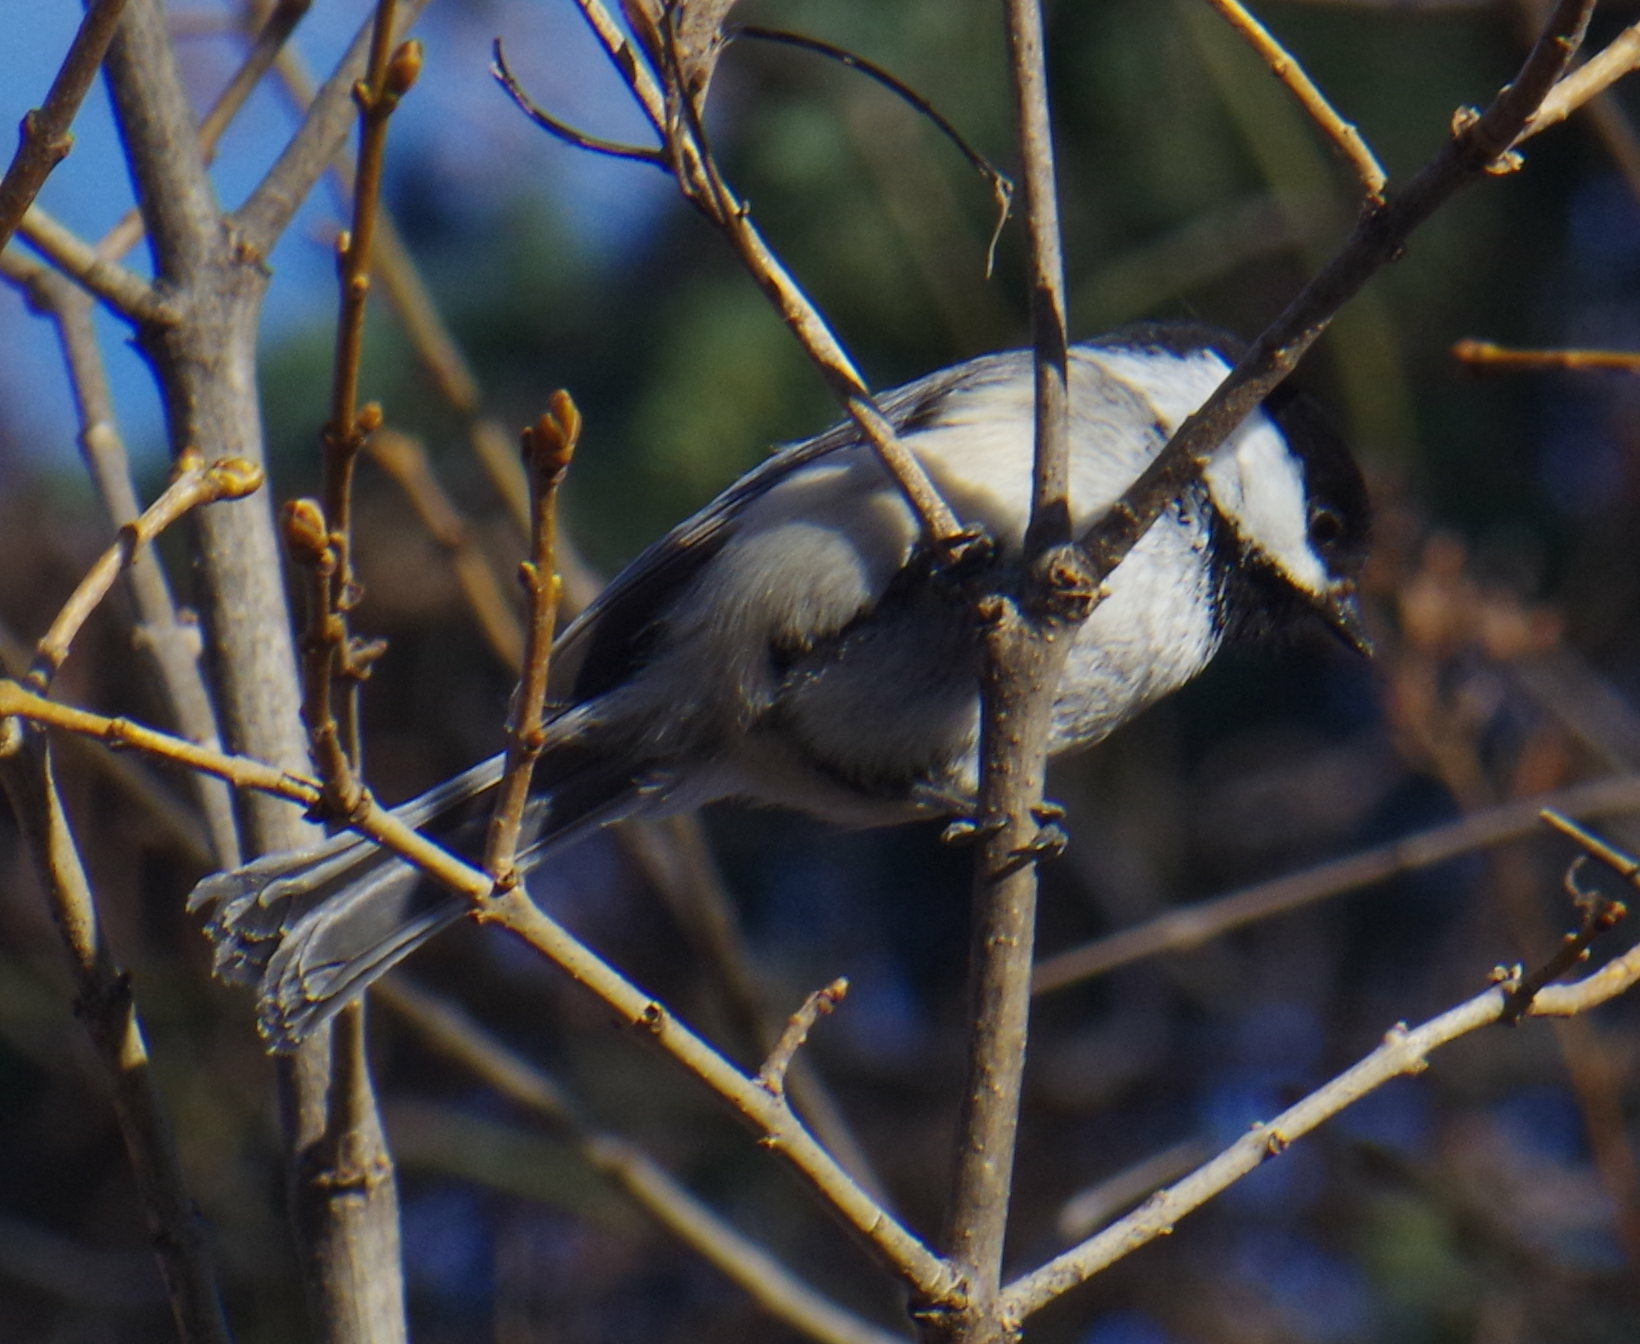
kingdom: Animalia
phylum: Chordata
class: Aves
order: Passeriformes
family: Paridae
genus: Poecile
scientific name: Poecile atricapillus
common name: Black-capped chickadee
